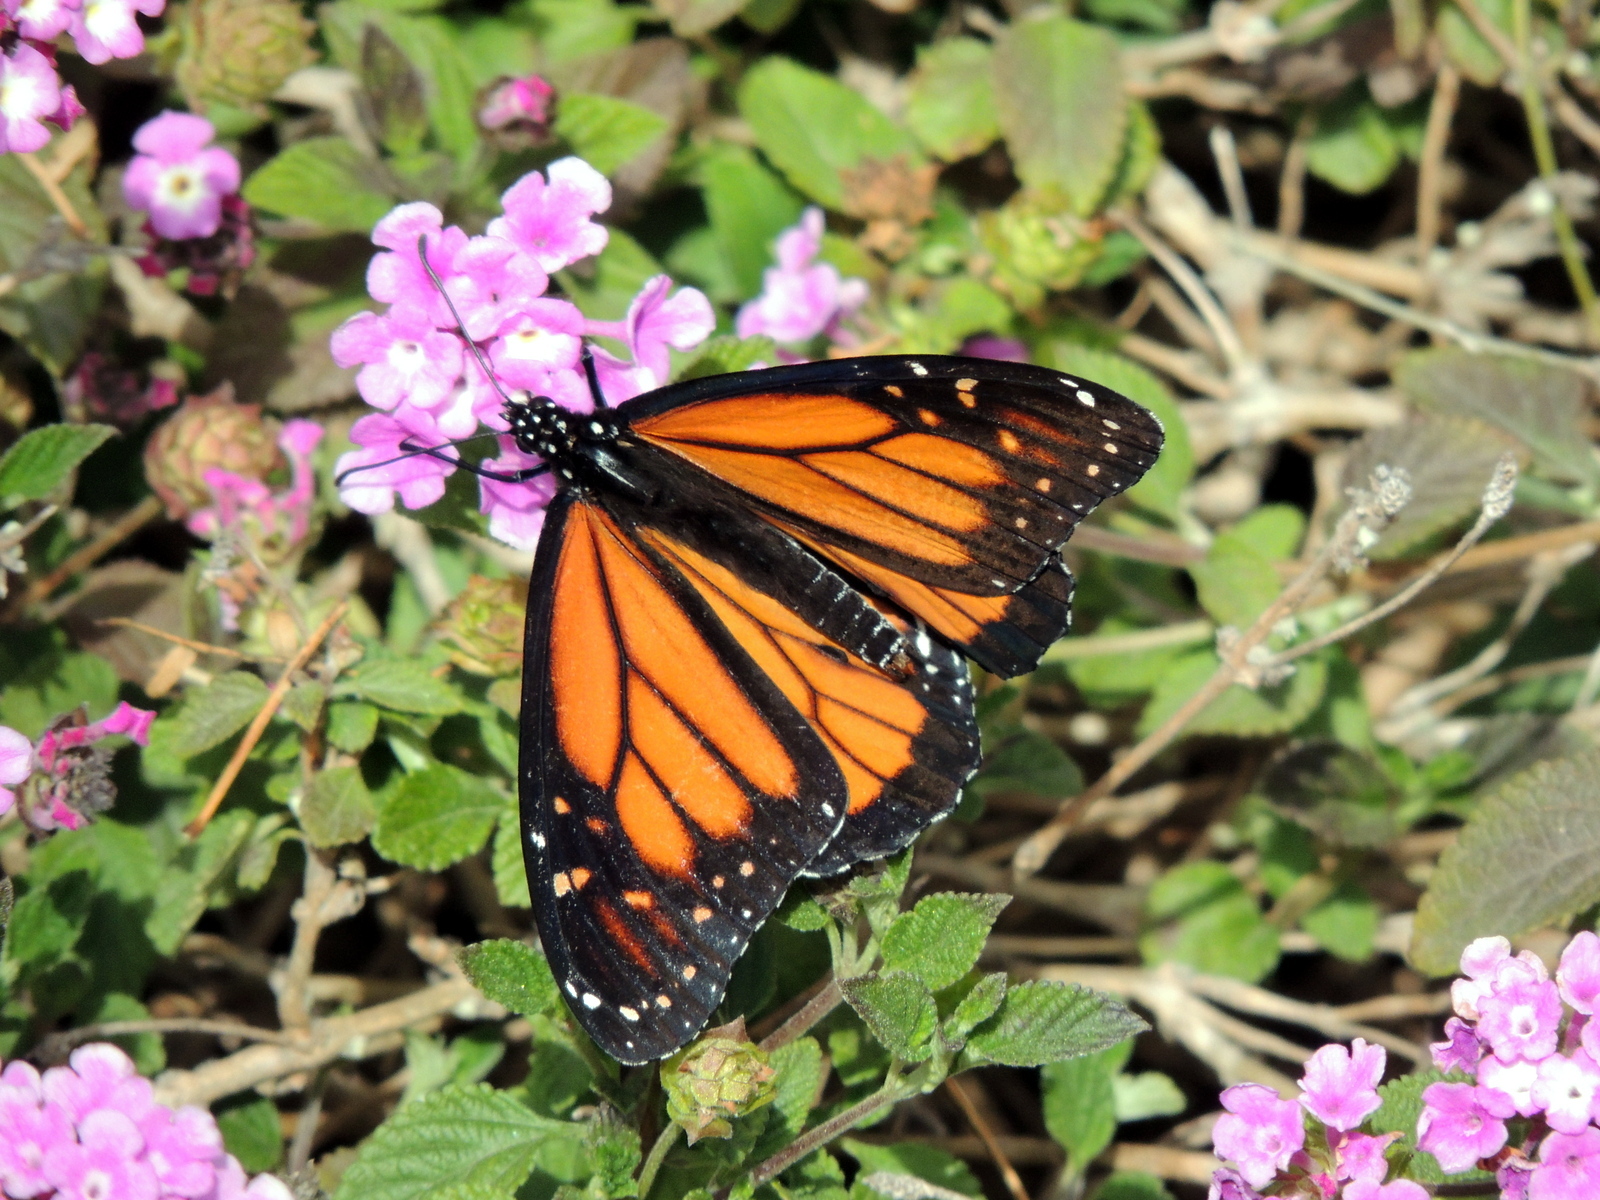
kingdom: Animalia
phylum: Arthropoda
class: Insecta
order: Lepidoptera
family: Nymphalidae
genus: Danaus
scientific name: Danaus plexippus
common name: Monarch
